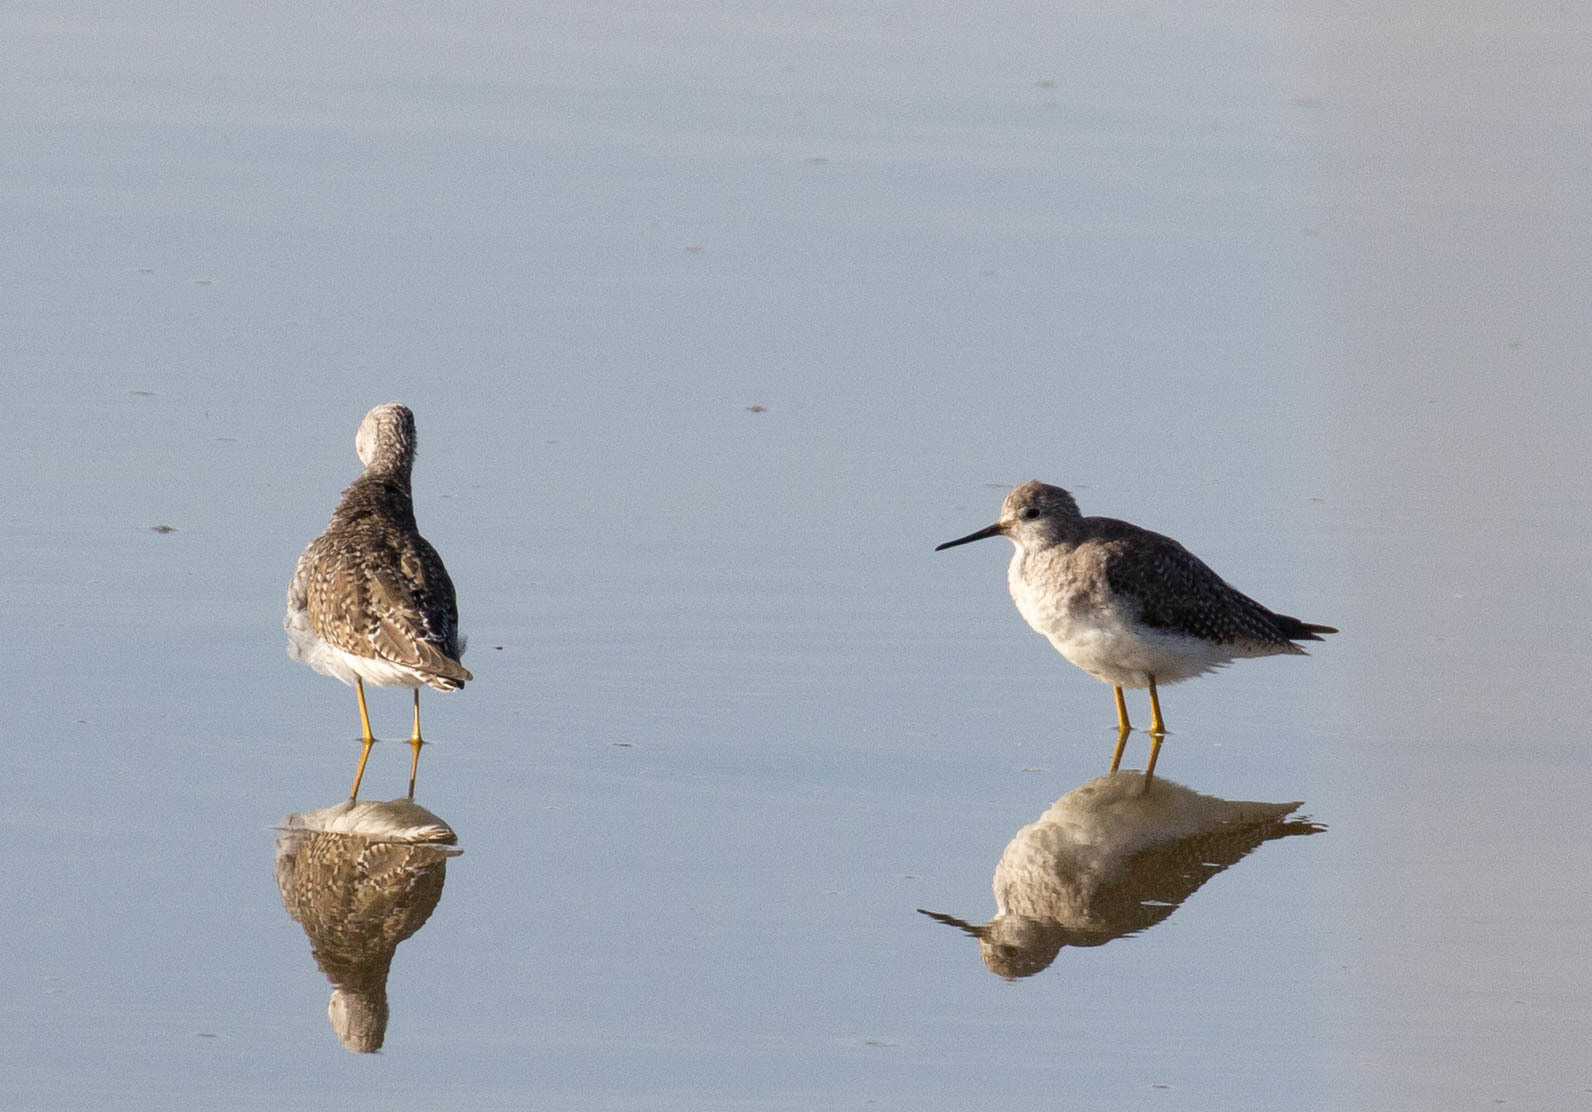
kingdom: Animalia
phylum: Chordata
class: Aves
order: Charadriiformes
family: Scolopacidae
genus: Tringa
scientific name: Tringa flavipes
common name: Lesser yellowlegs
